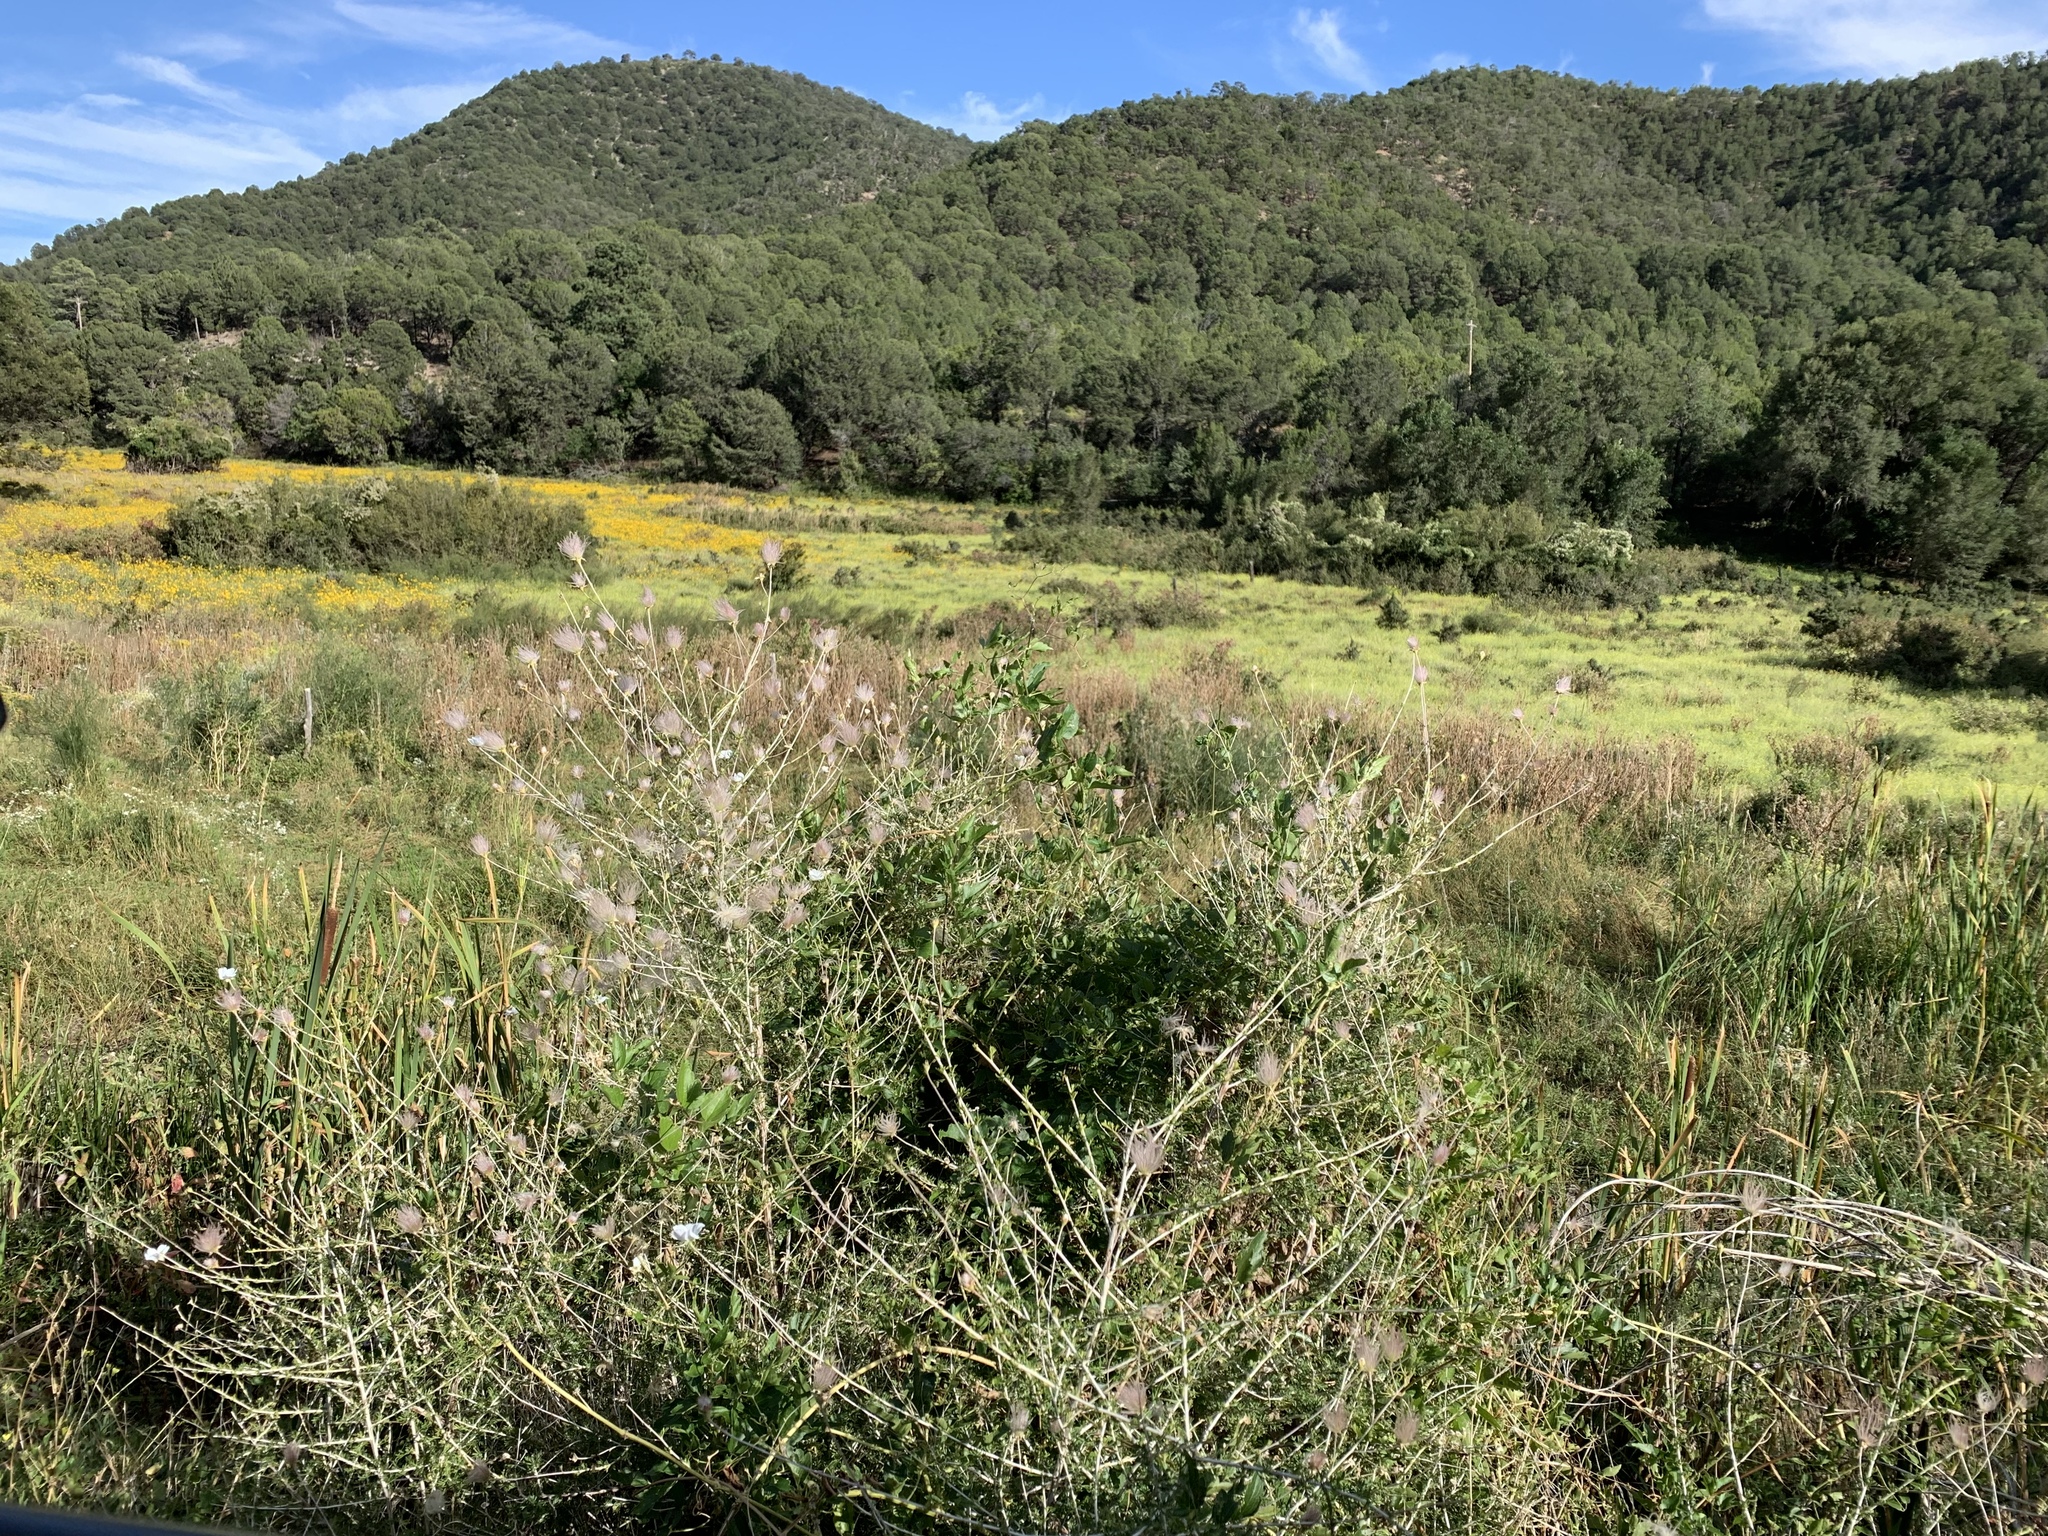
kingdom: Plantae
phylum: Tracheophyta
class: Magnoliopsida
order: Rosales
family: Rosaceae
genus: Fallugia
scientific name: Fallugia paradoxa
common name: Apache-plume
